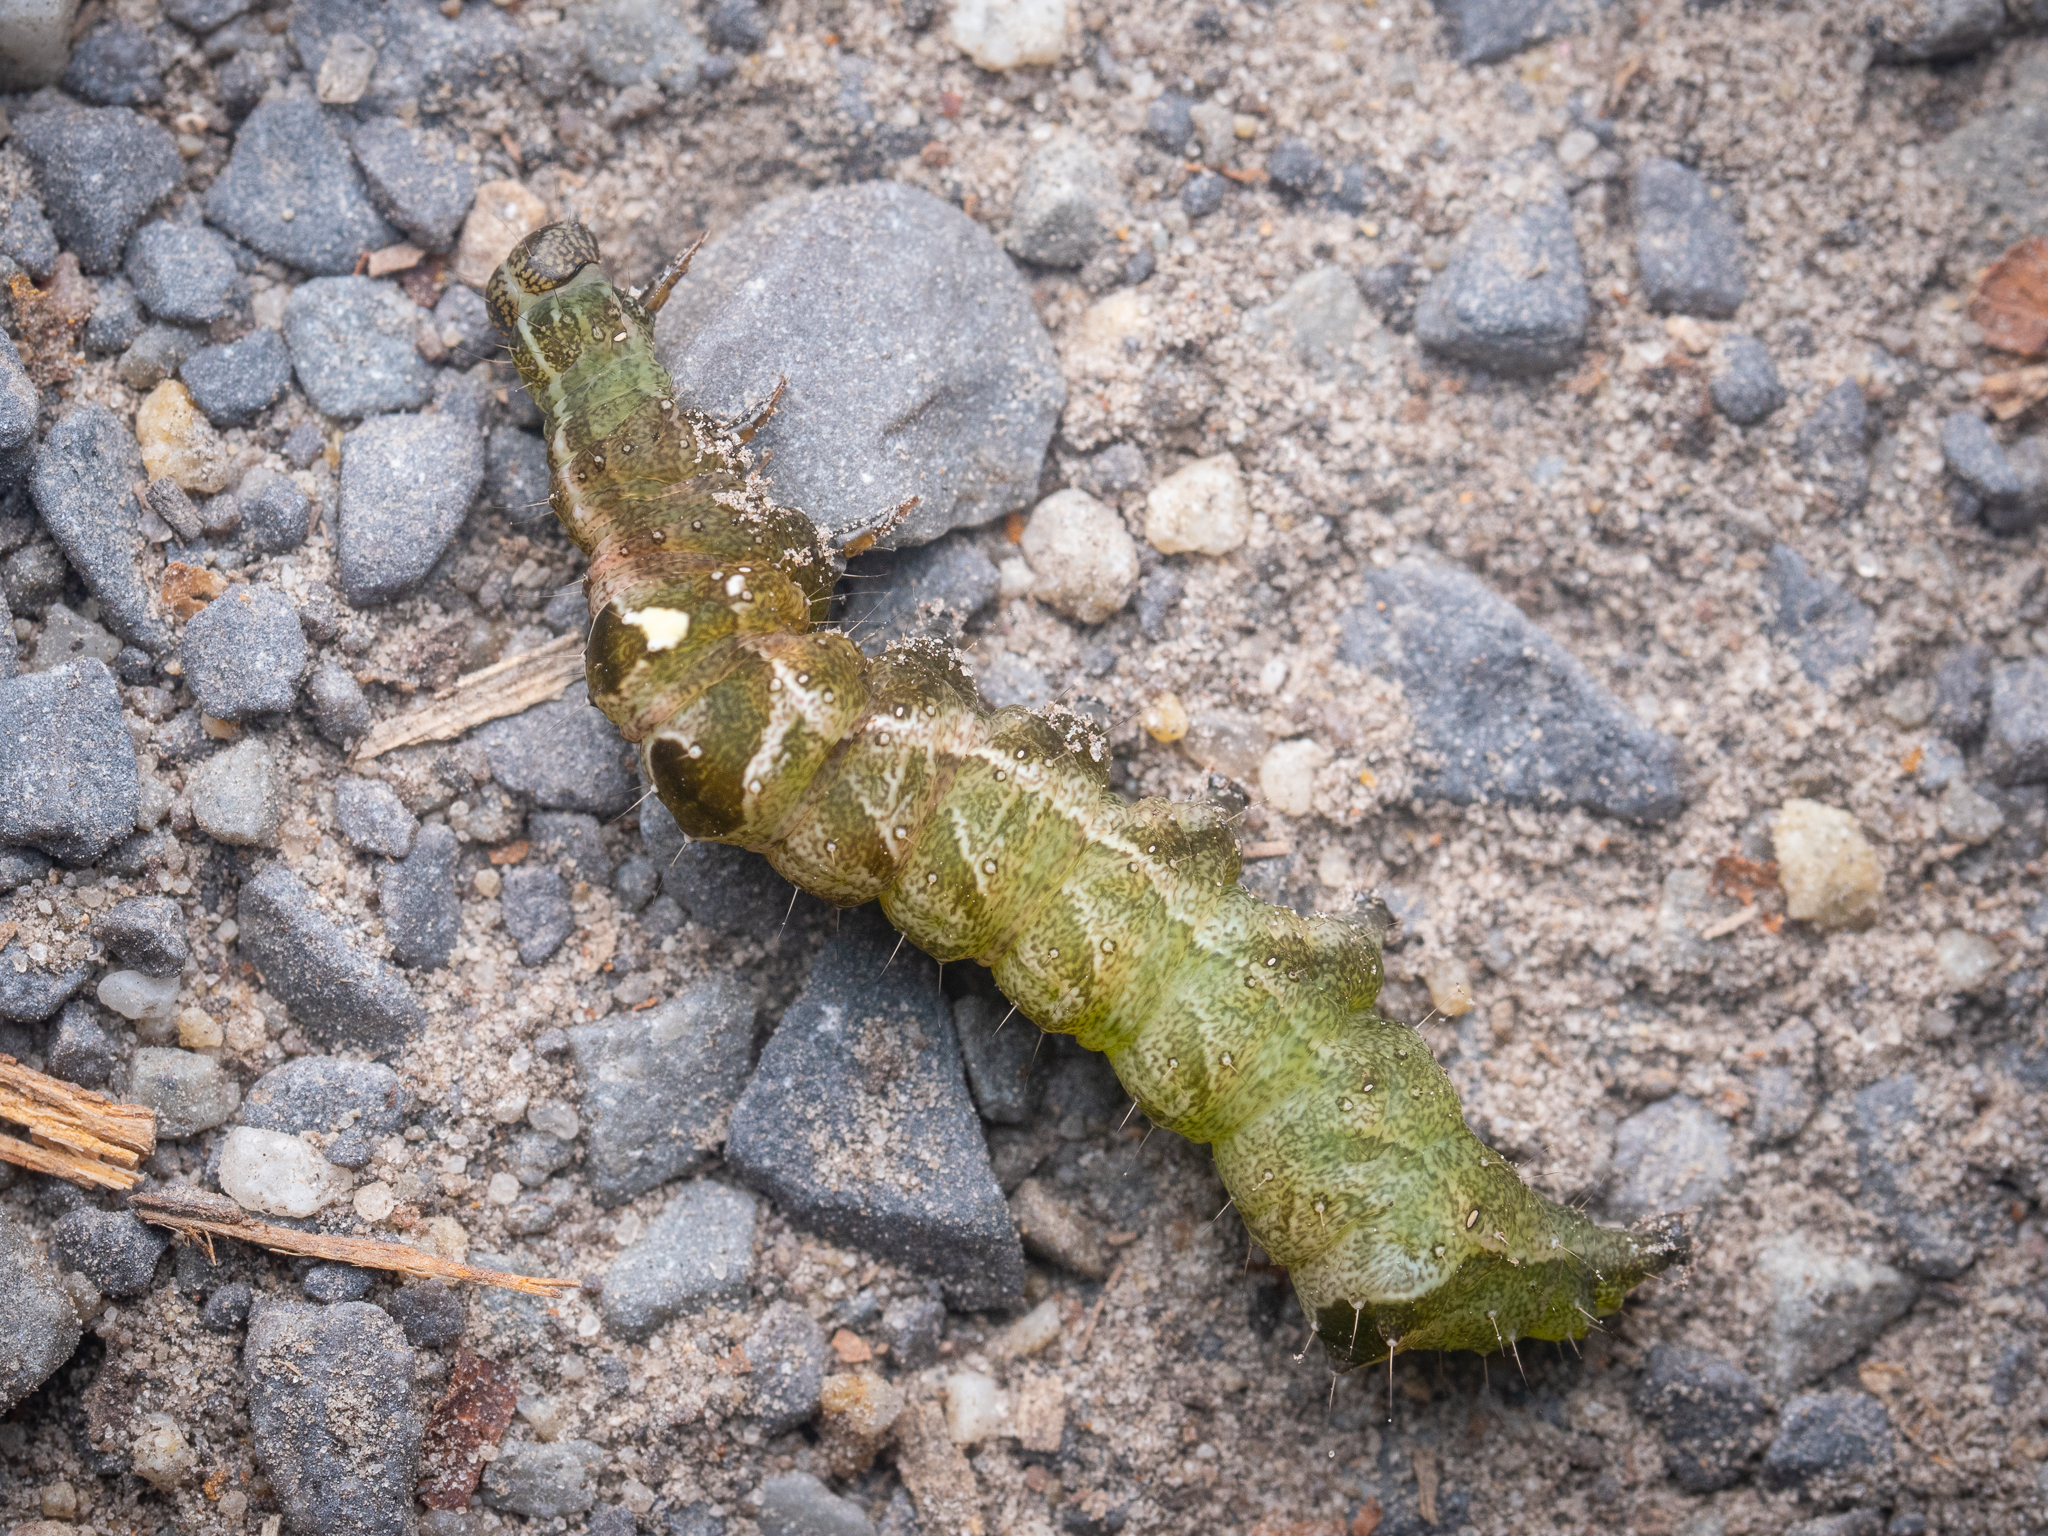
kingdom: Animalia
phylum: Arthropoda
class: Insecta
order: Lepidoptera
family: Noctuidae
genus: Abrostola
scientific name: Abrostola triplasia
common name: Dark spectacle
